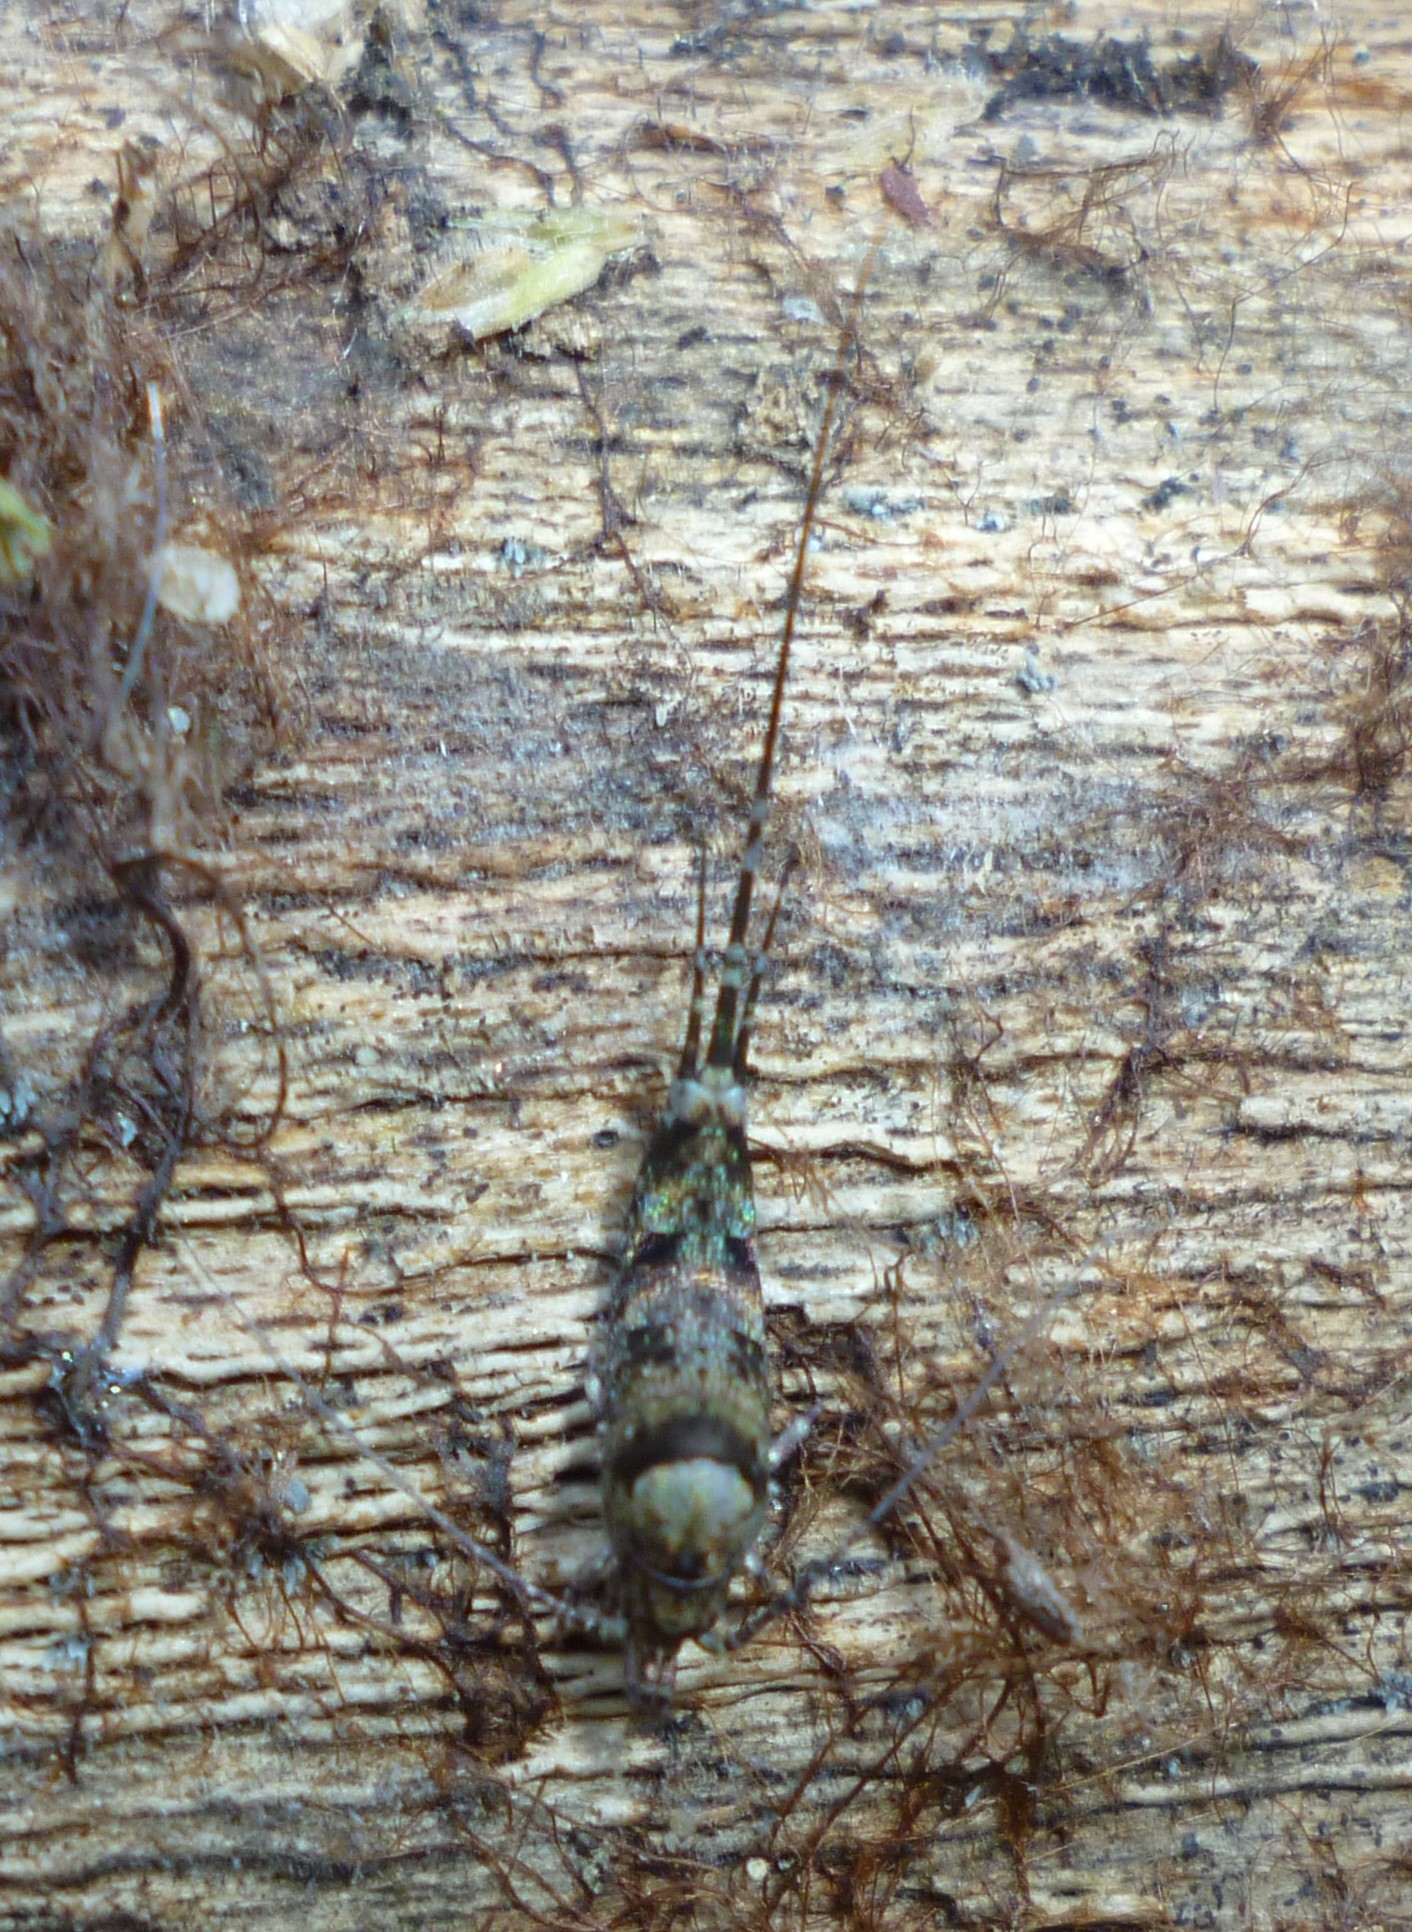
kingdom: Animalia
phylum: Arthropoda
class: Insecta
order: Archaeognatha
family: Machilidae
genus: Trigoniophthalmus
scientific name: Trigoniophthalmus alternatus
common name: Jumping bristletail
